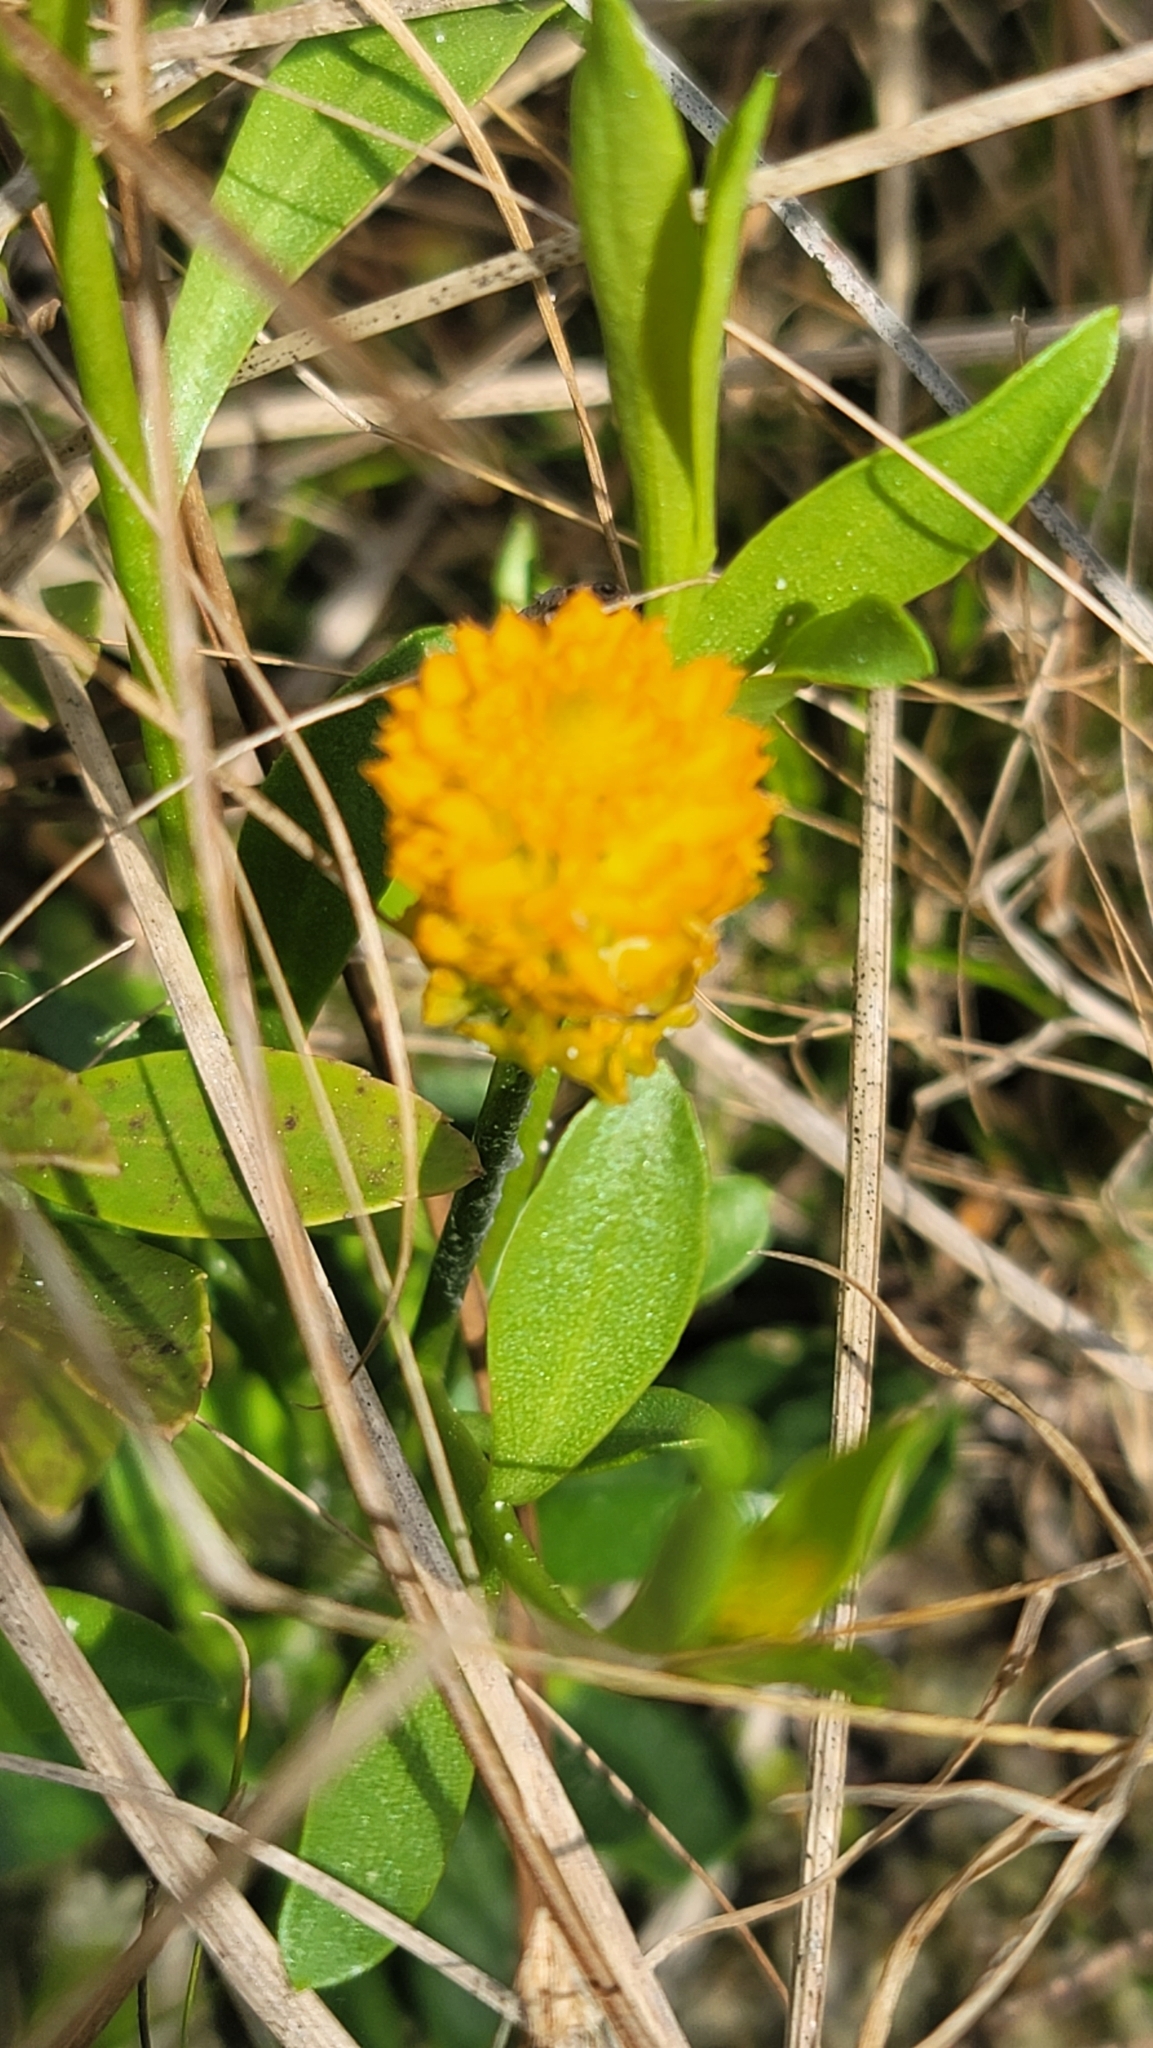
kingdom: Plantae
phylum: Tracheophyta
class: Magnoliopsida
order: Fabales
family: Polygalaceae
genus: Polygala
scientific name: Polygala lutea
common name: Orange milkwort
